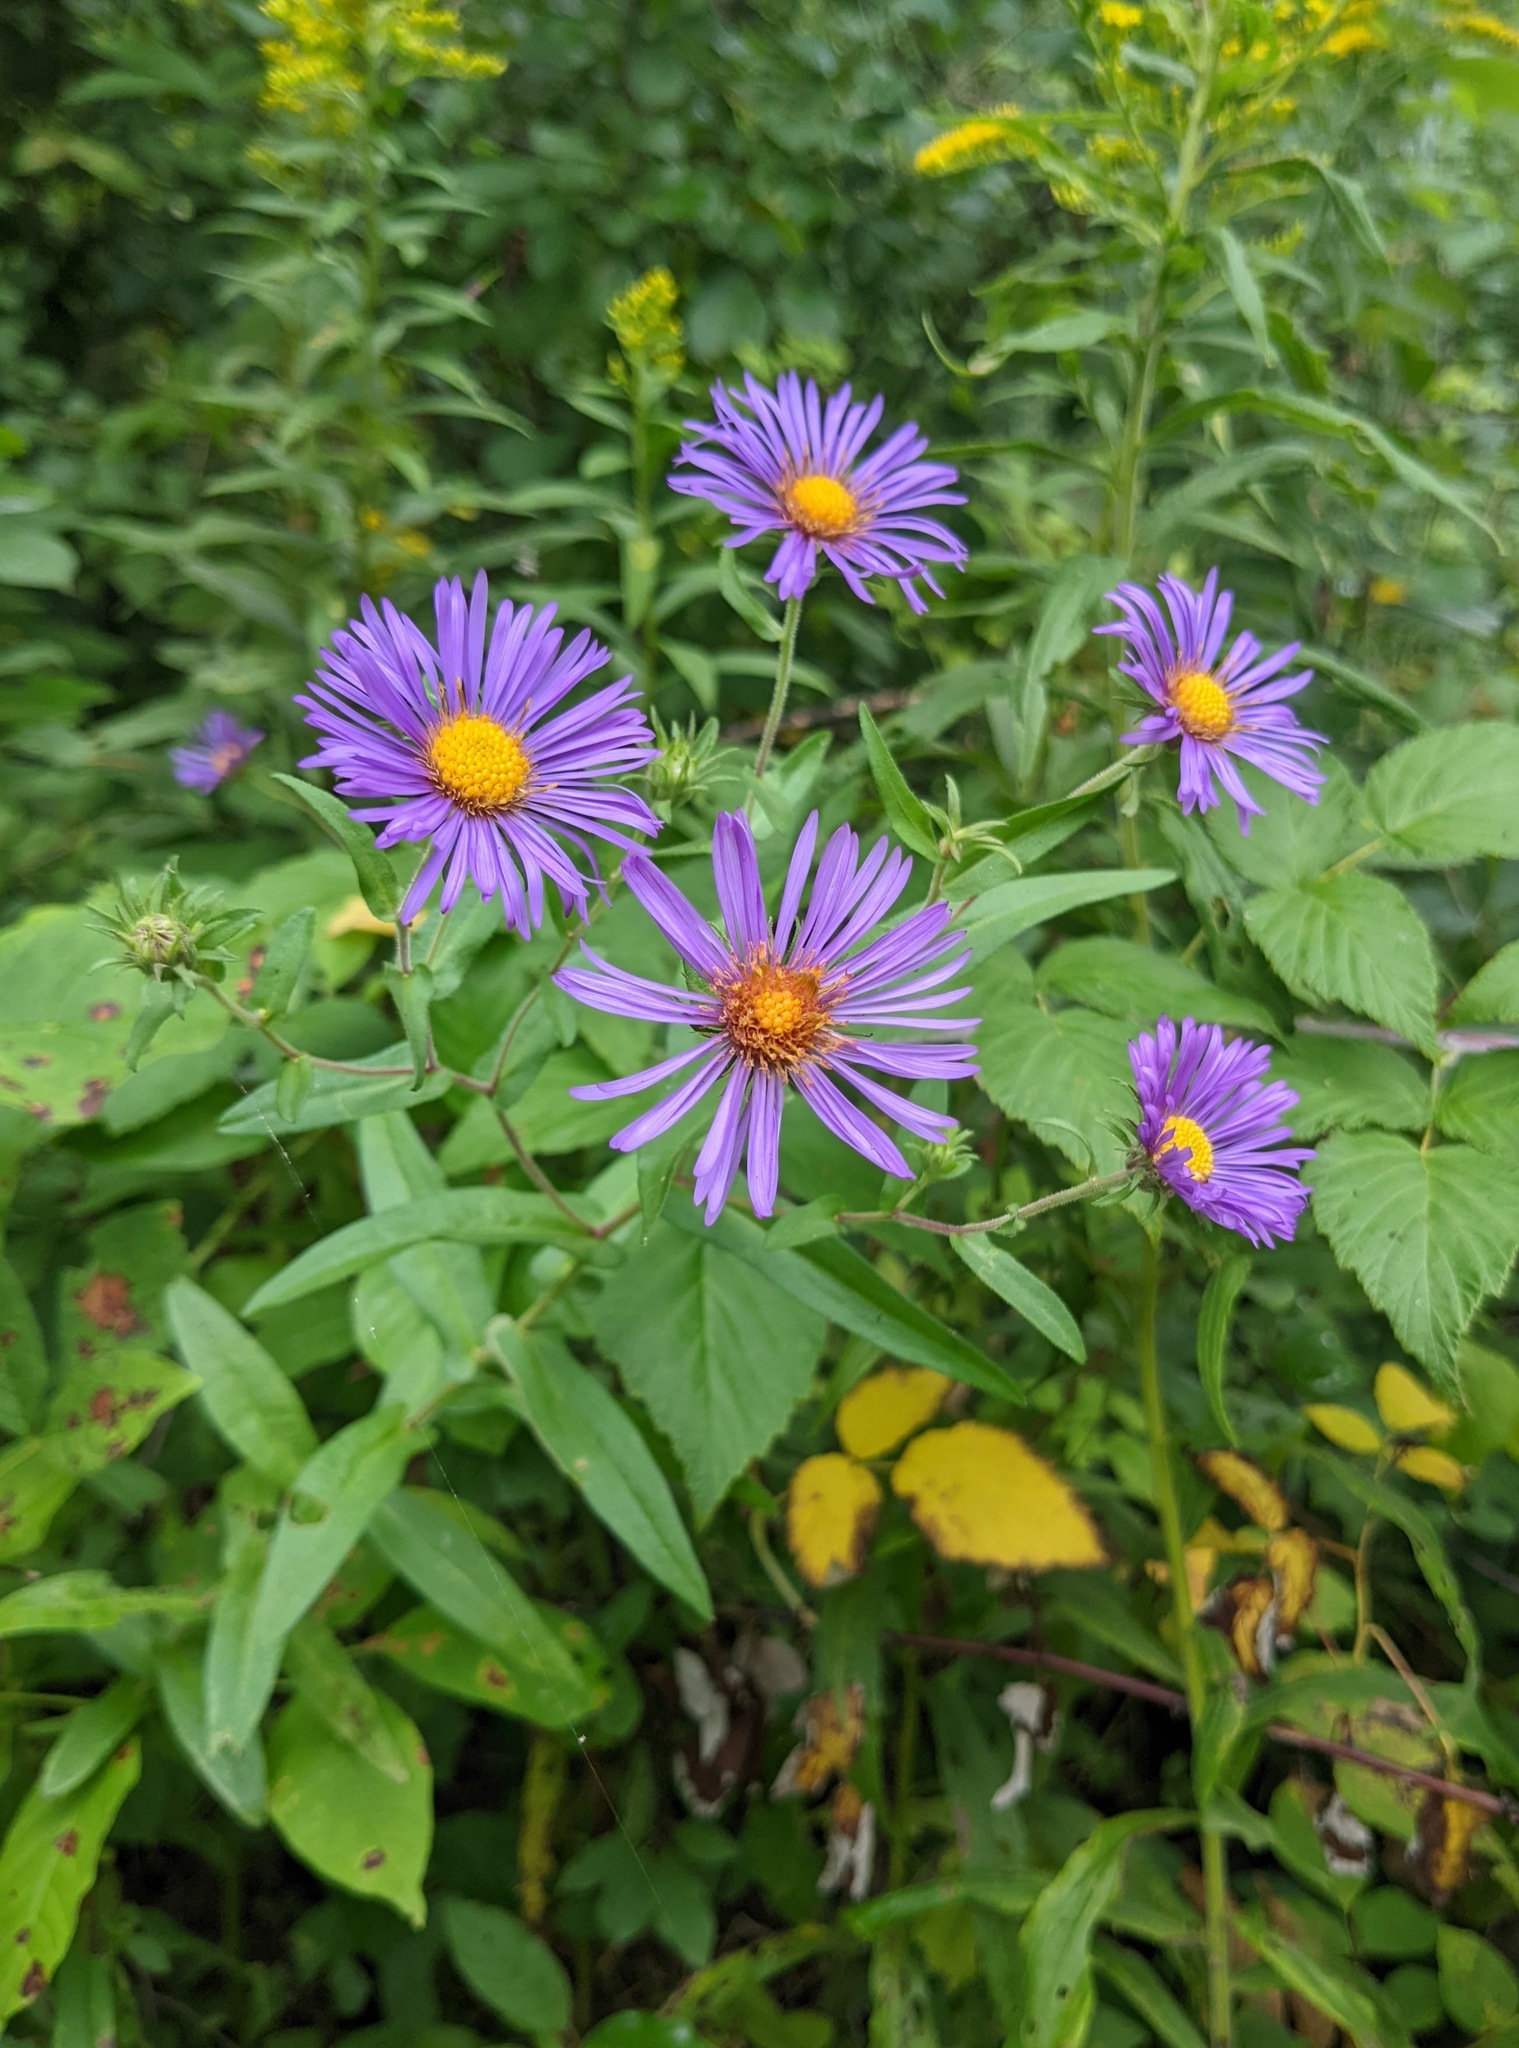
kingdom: Plantae
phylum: Tracheophyta
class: Magnoliopsida
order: Asterales
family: Asteraceae
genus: Symphyotrichum
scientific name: Symphyotrichum novae-angliae
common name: Michaelmas daisy
